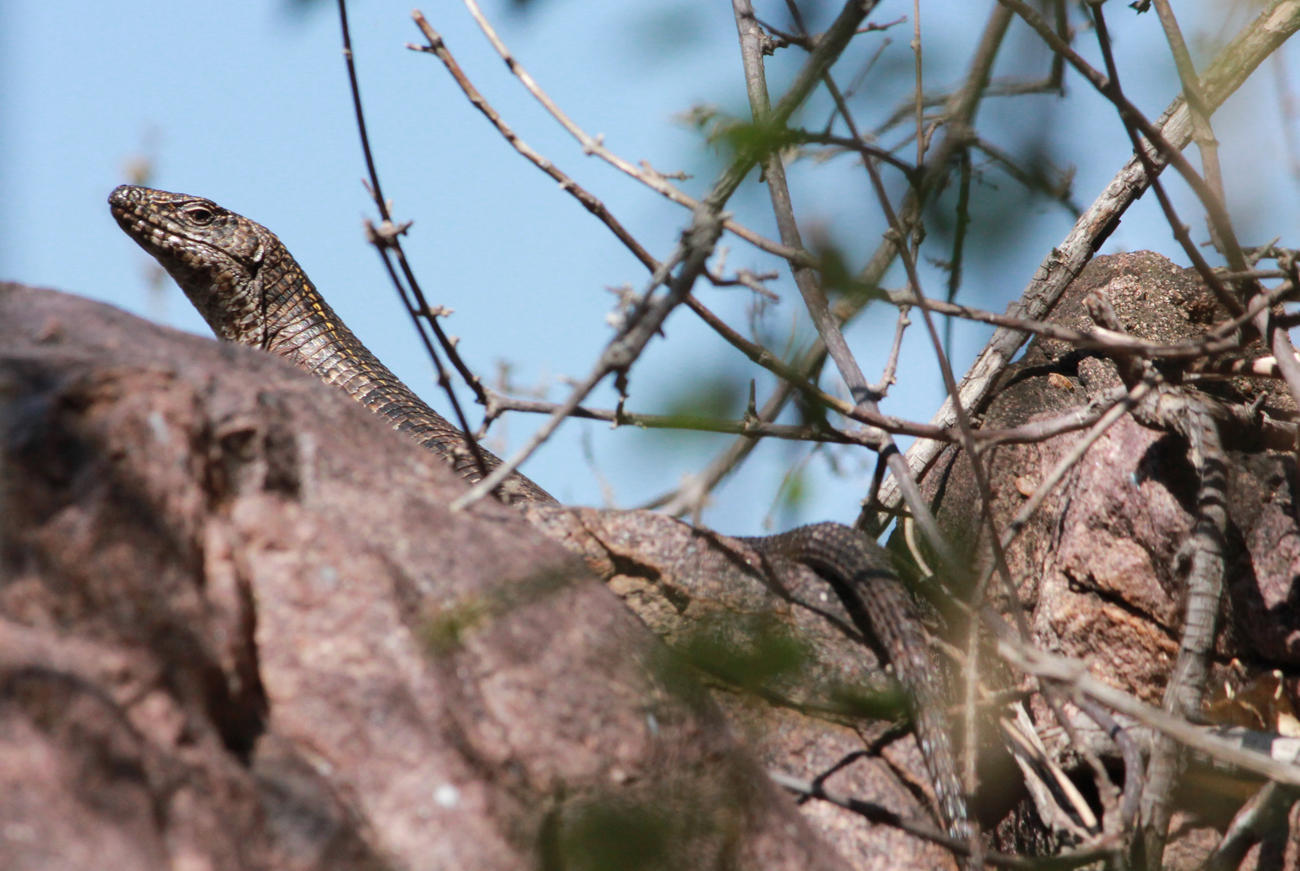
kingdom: Animalia
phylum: Chordata
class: Squamata
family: Gerrhosauridae
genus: Matobosaurus
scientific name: Matobosaurus validus
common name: Common giant plated lizard
